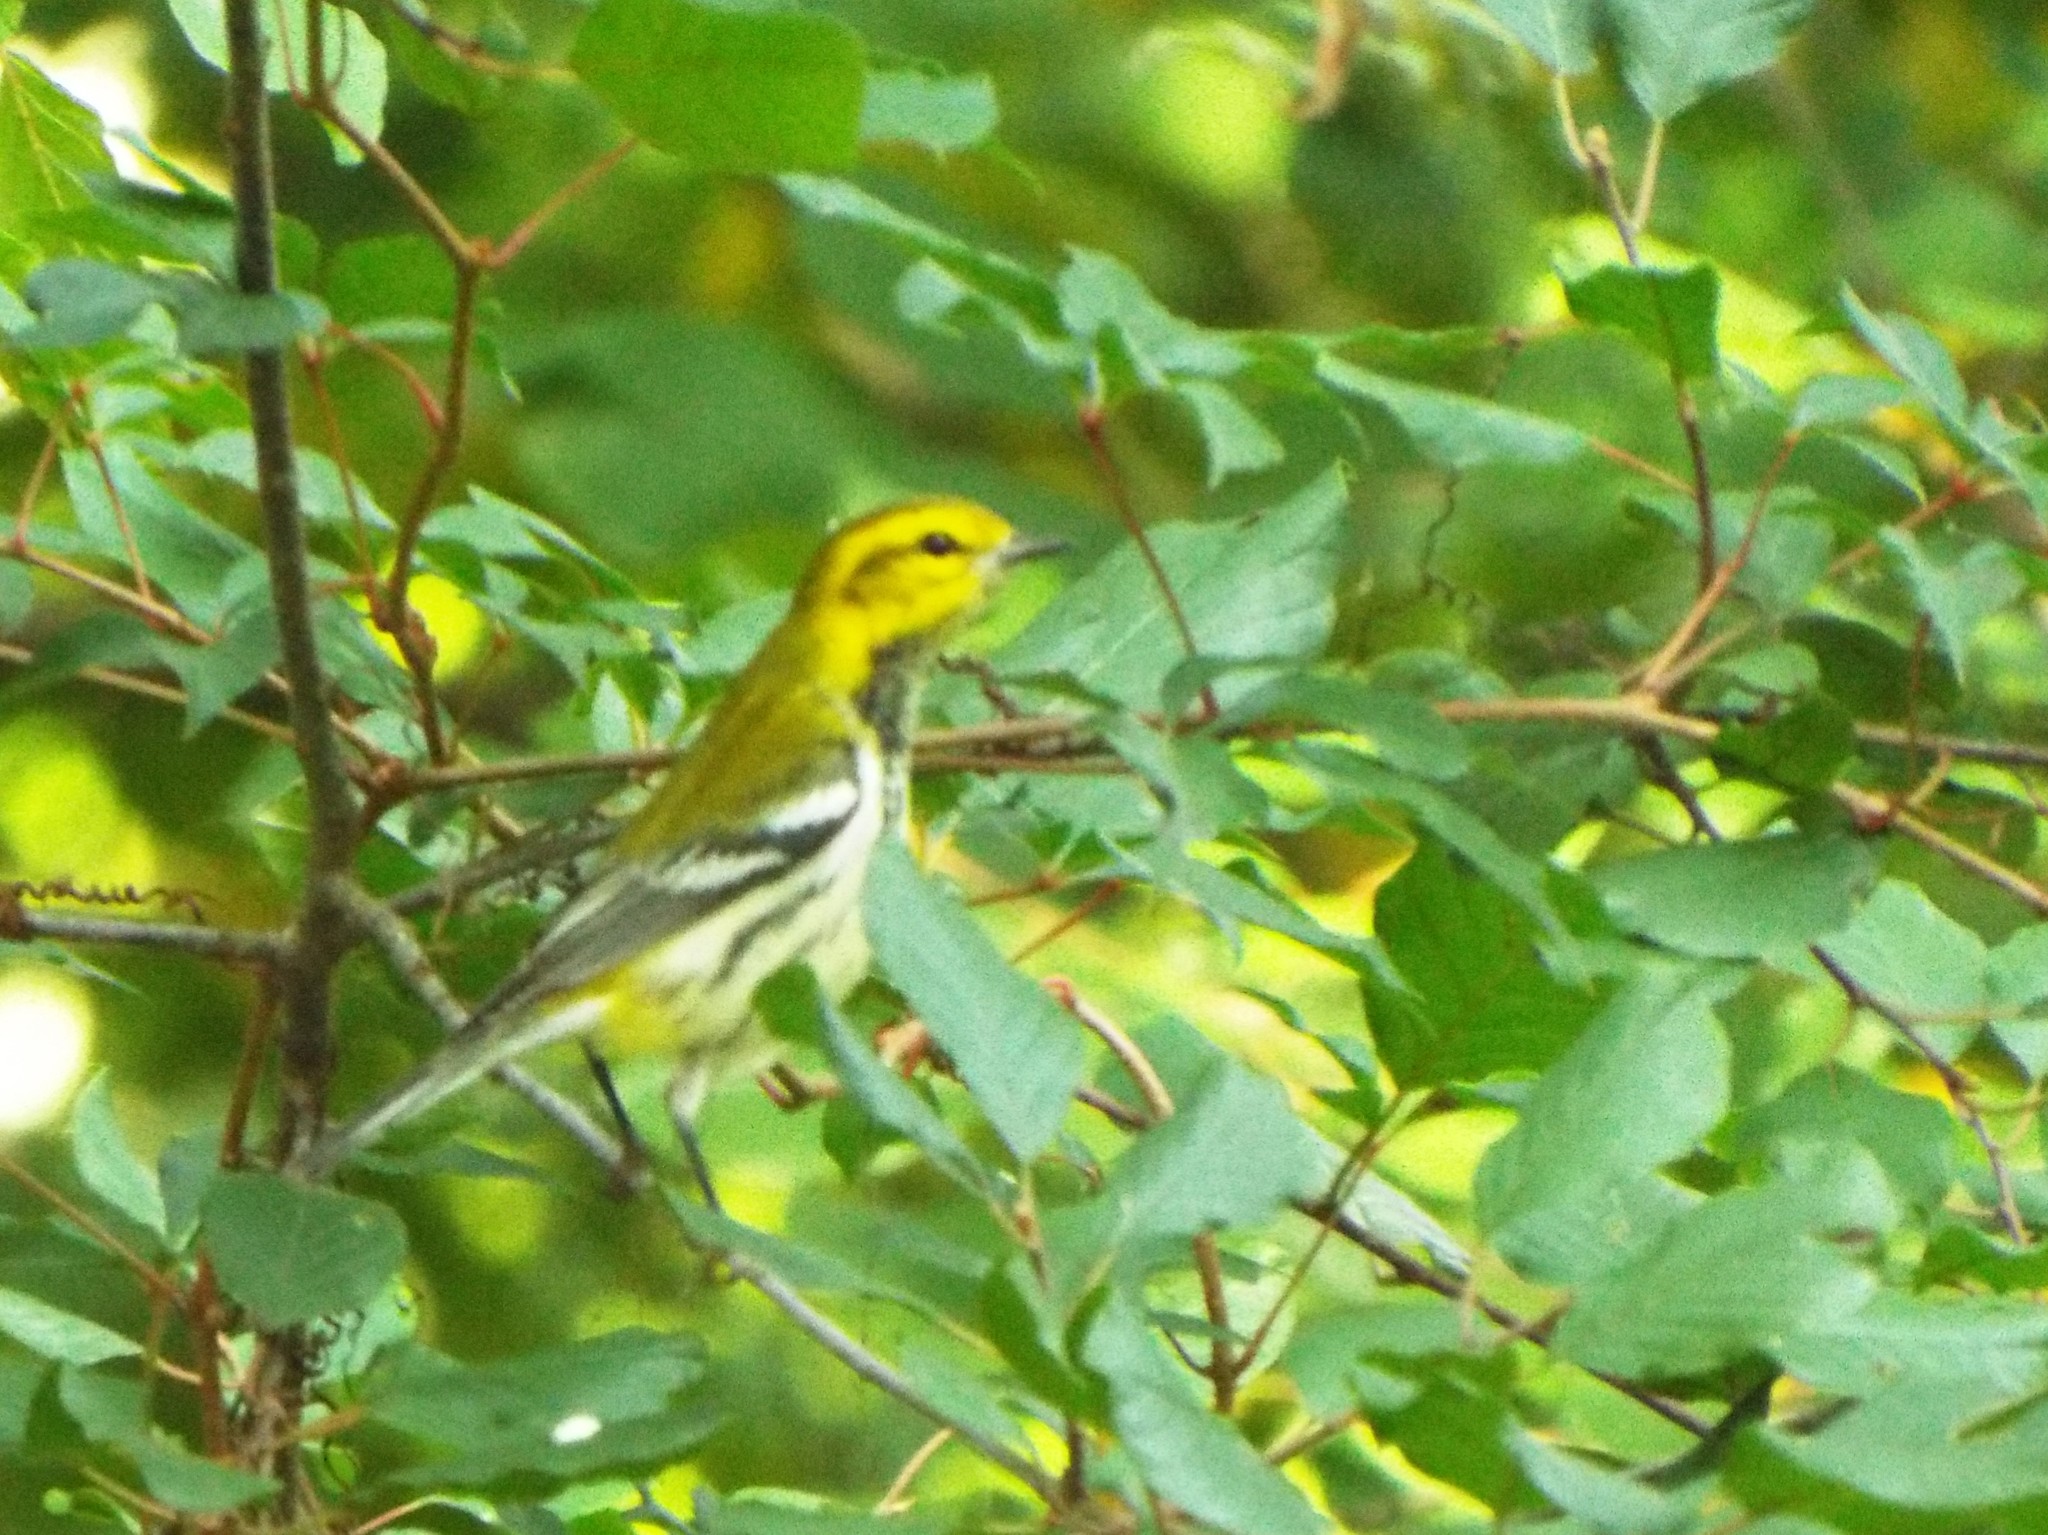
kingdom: Animalia
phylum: Chordata
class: Aves
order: Passeriformes
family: Parulidae
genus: Setophaga
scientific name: Setophaga virens
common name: Black-throated green warbler
